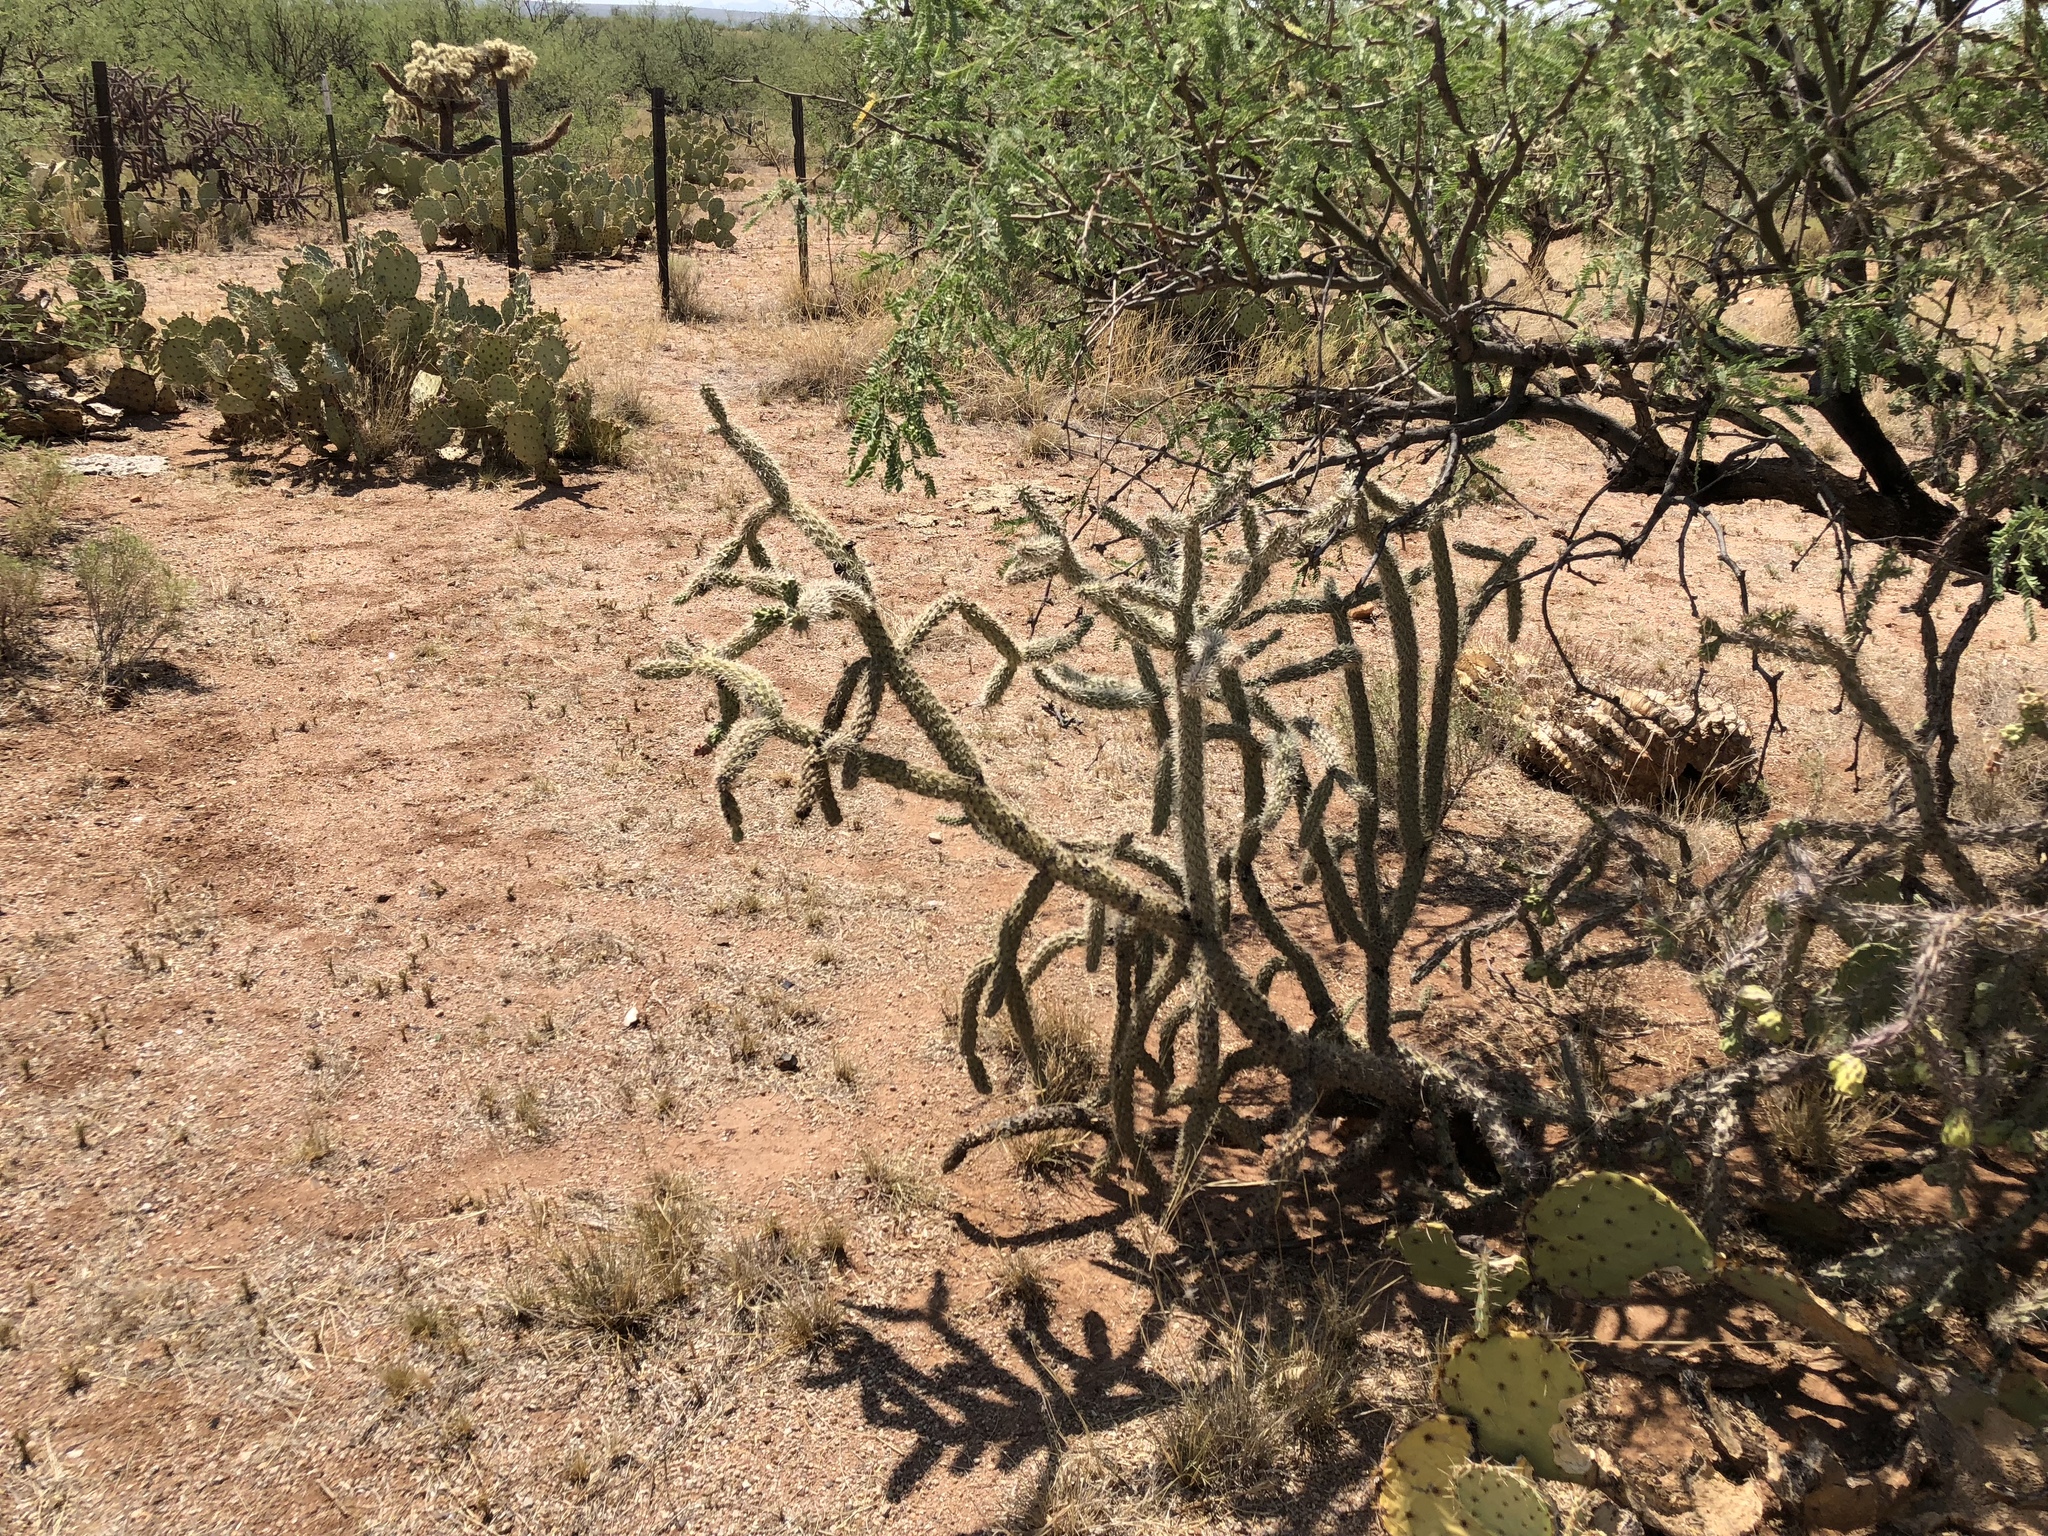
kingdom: Plantae
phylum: Tracheophyta
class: Magnoliopsida
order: Caryophyllales
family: Cactaceae
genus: Cylindropuntia
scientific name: Cylindropuntia imbricata
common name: Candelabrum cactus
